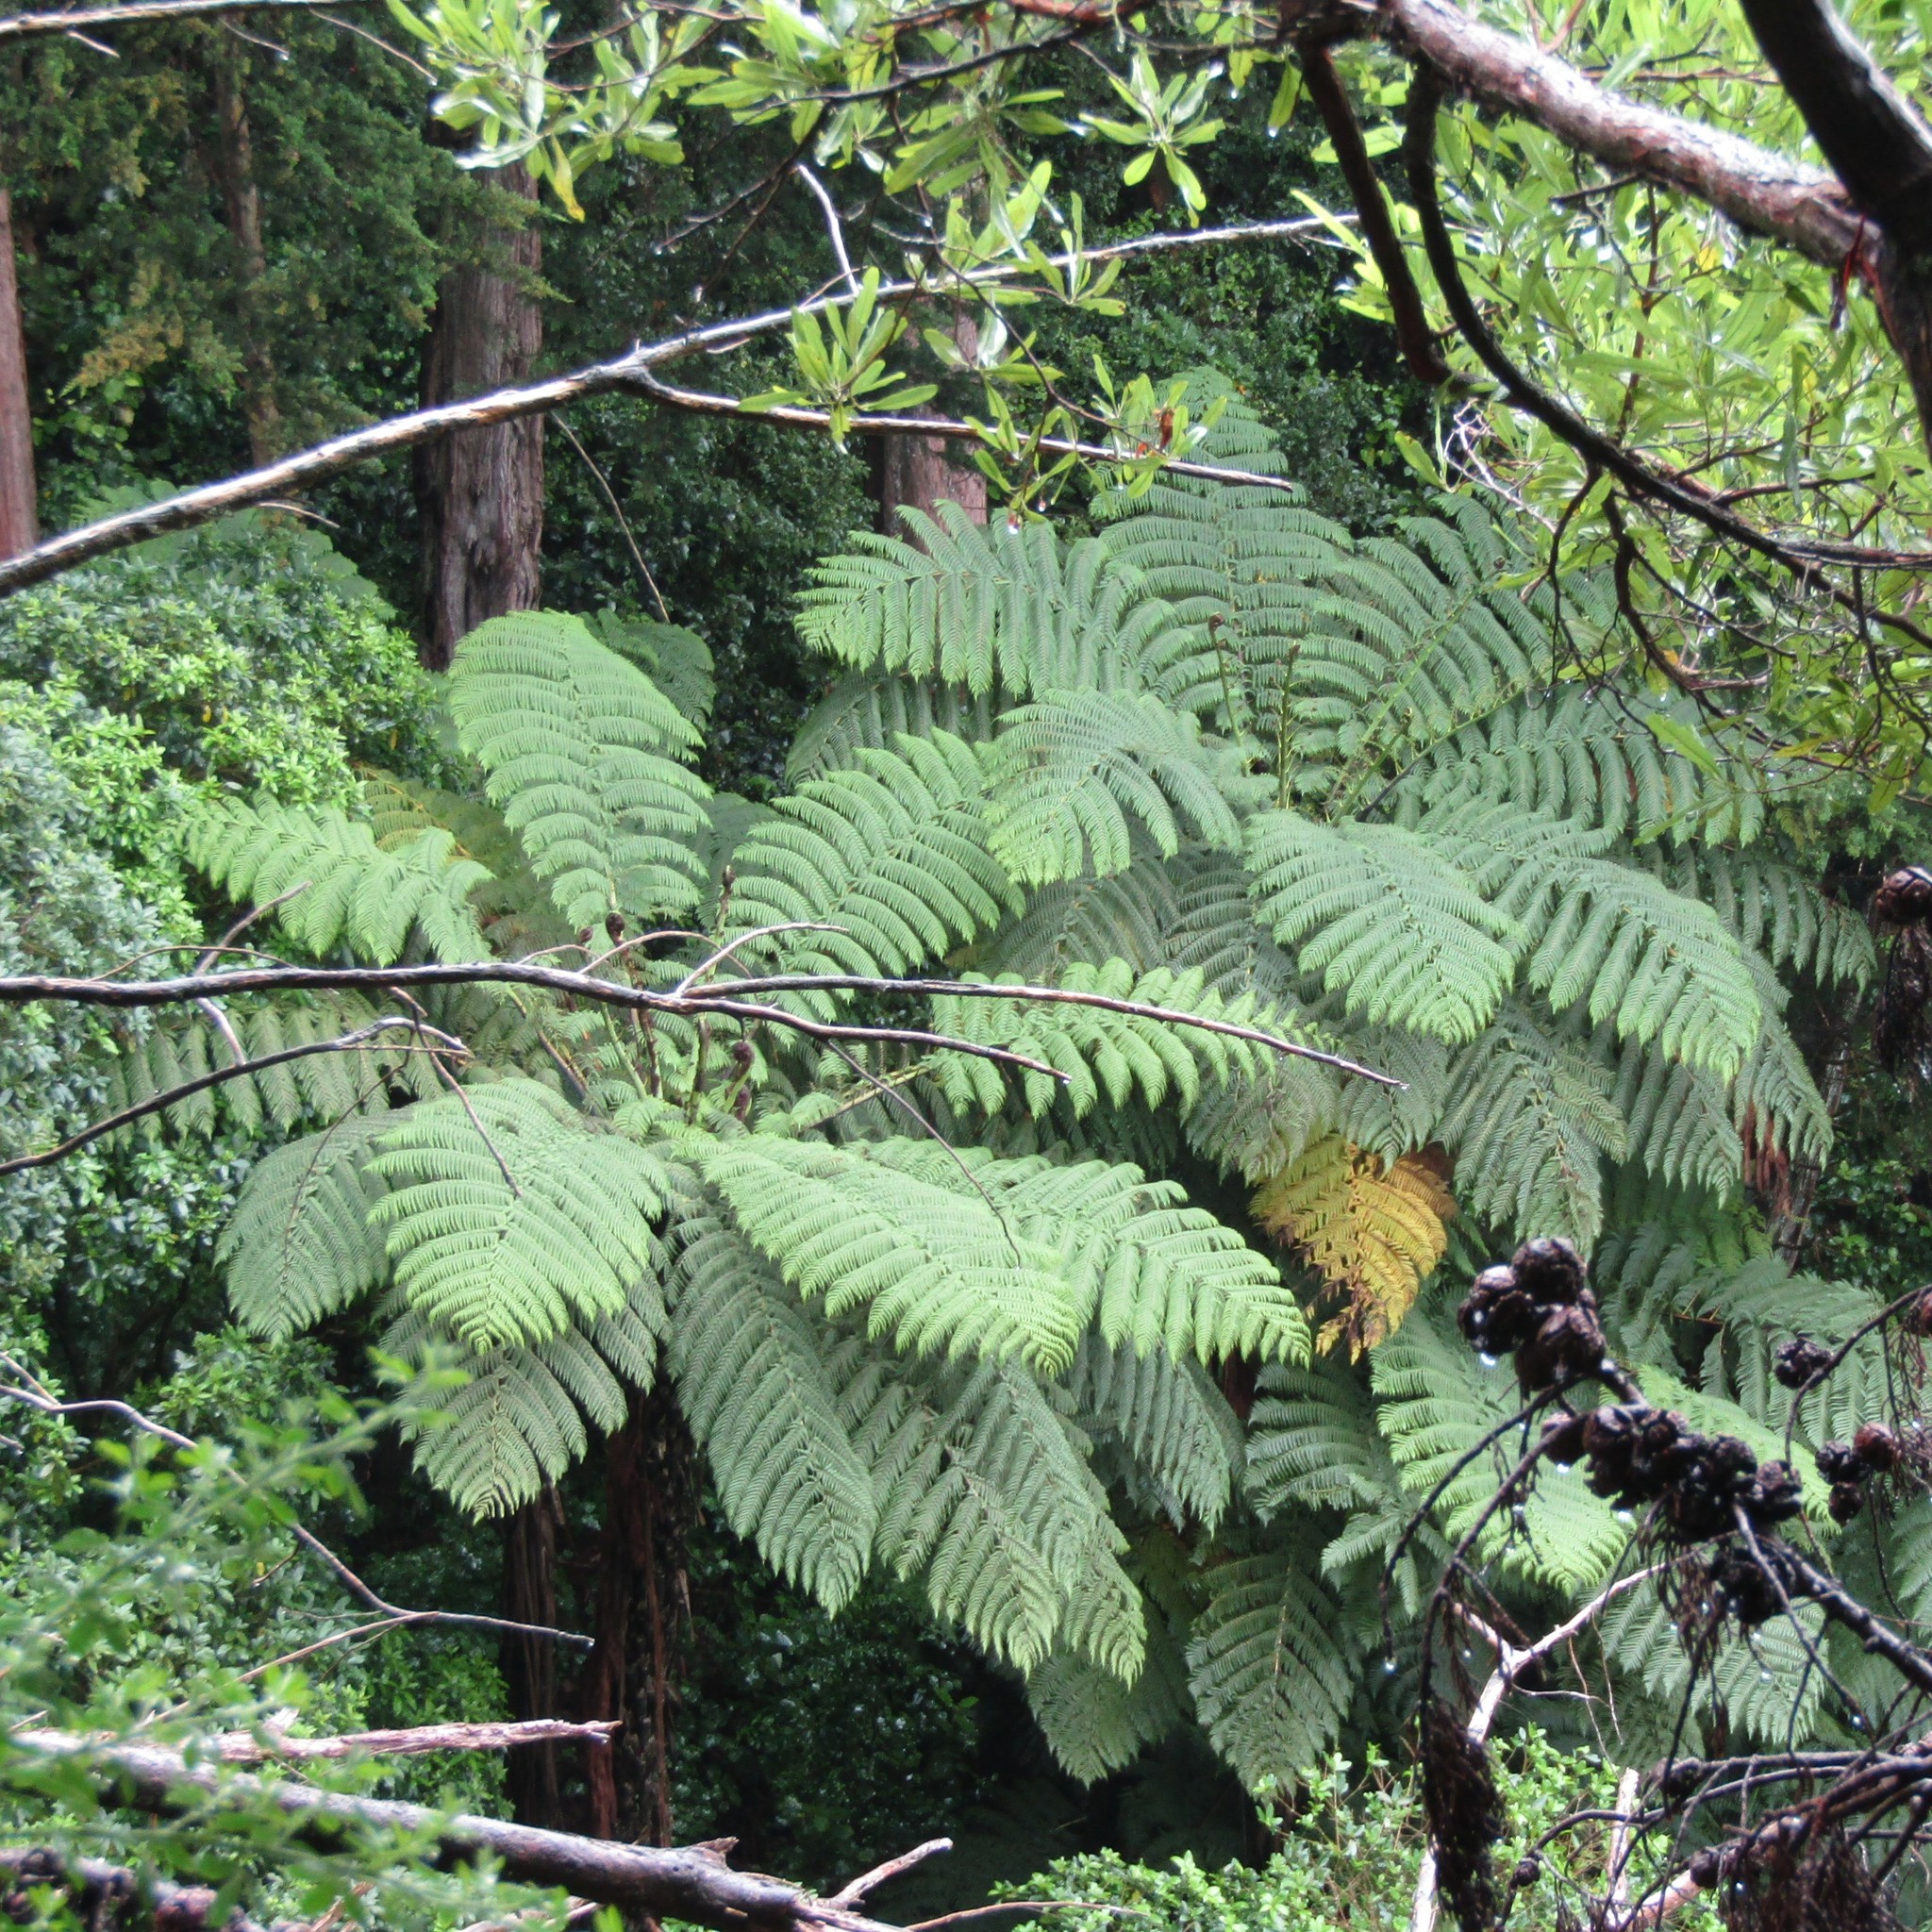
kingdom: Plantae
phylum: Tracheophyta
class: Polypodiopsida
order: Cyatheales
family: Cyatheaceae
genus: Sphaeropteris
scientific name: Sphaeropteris medullaris
